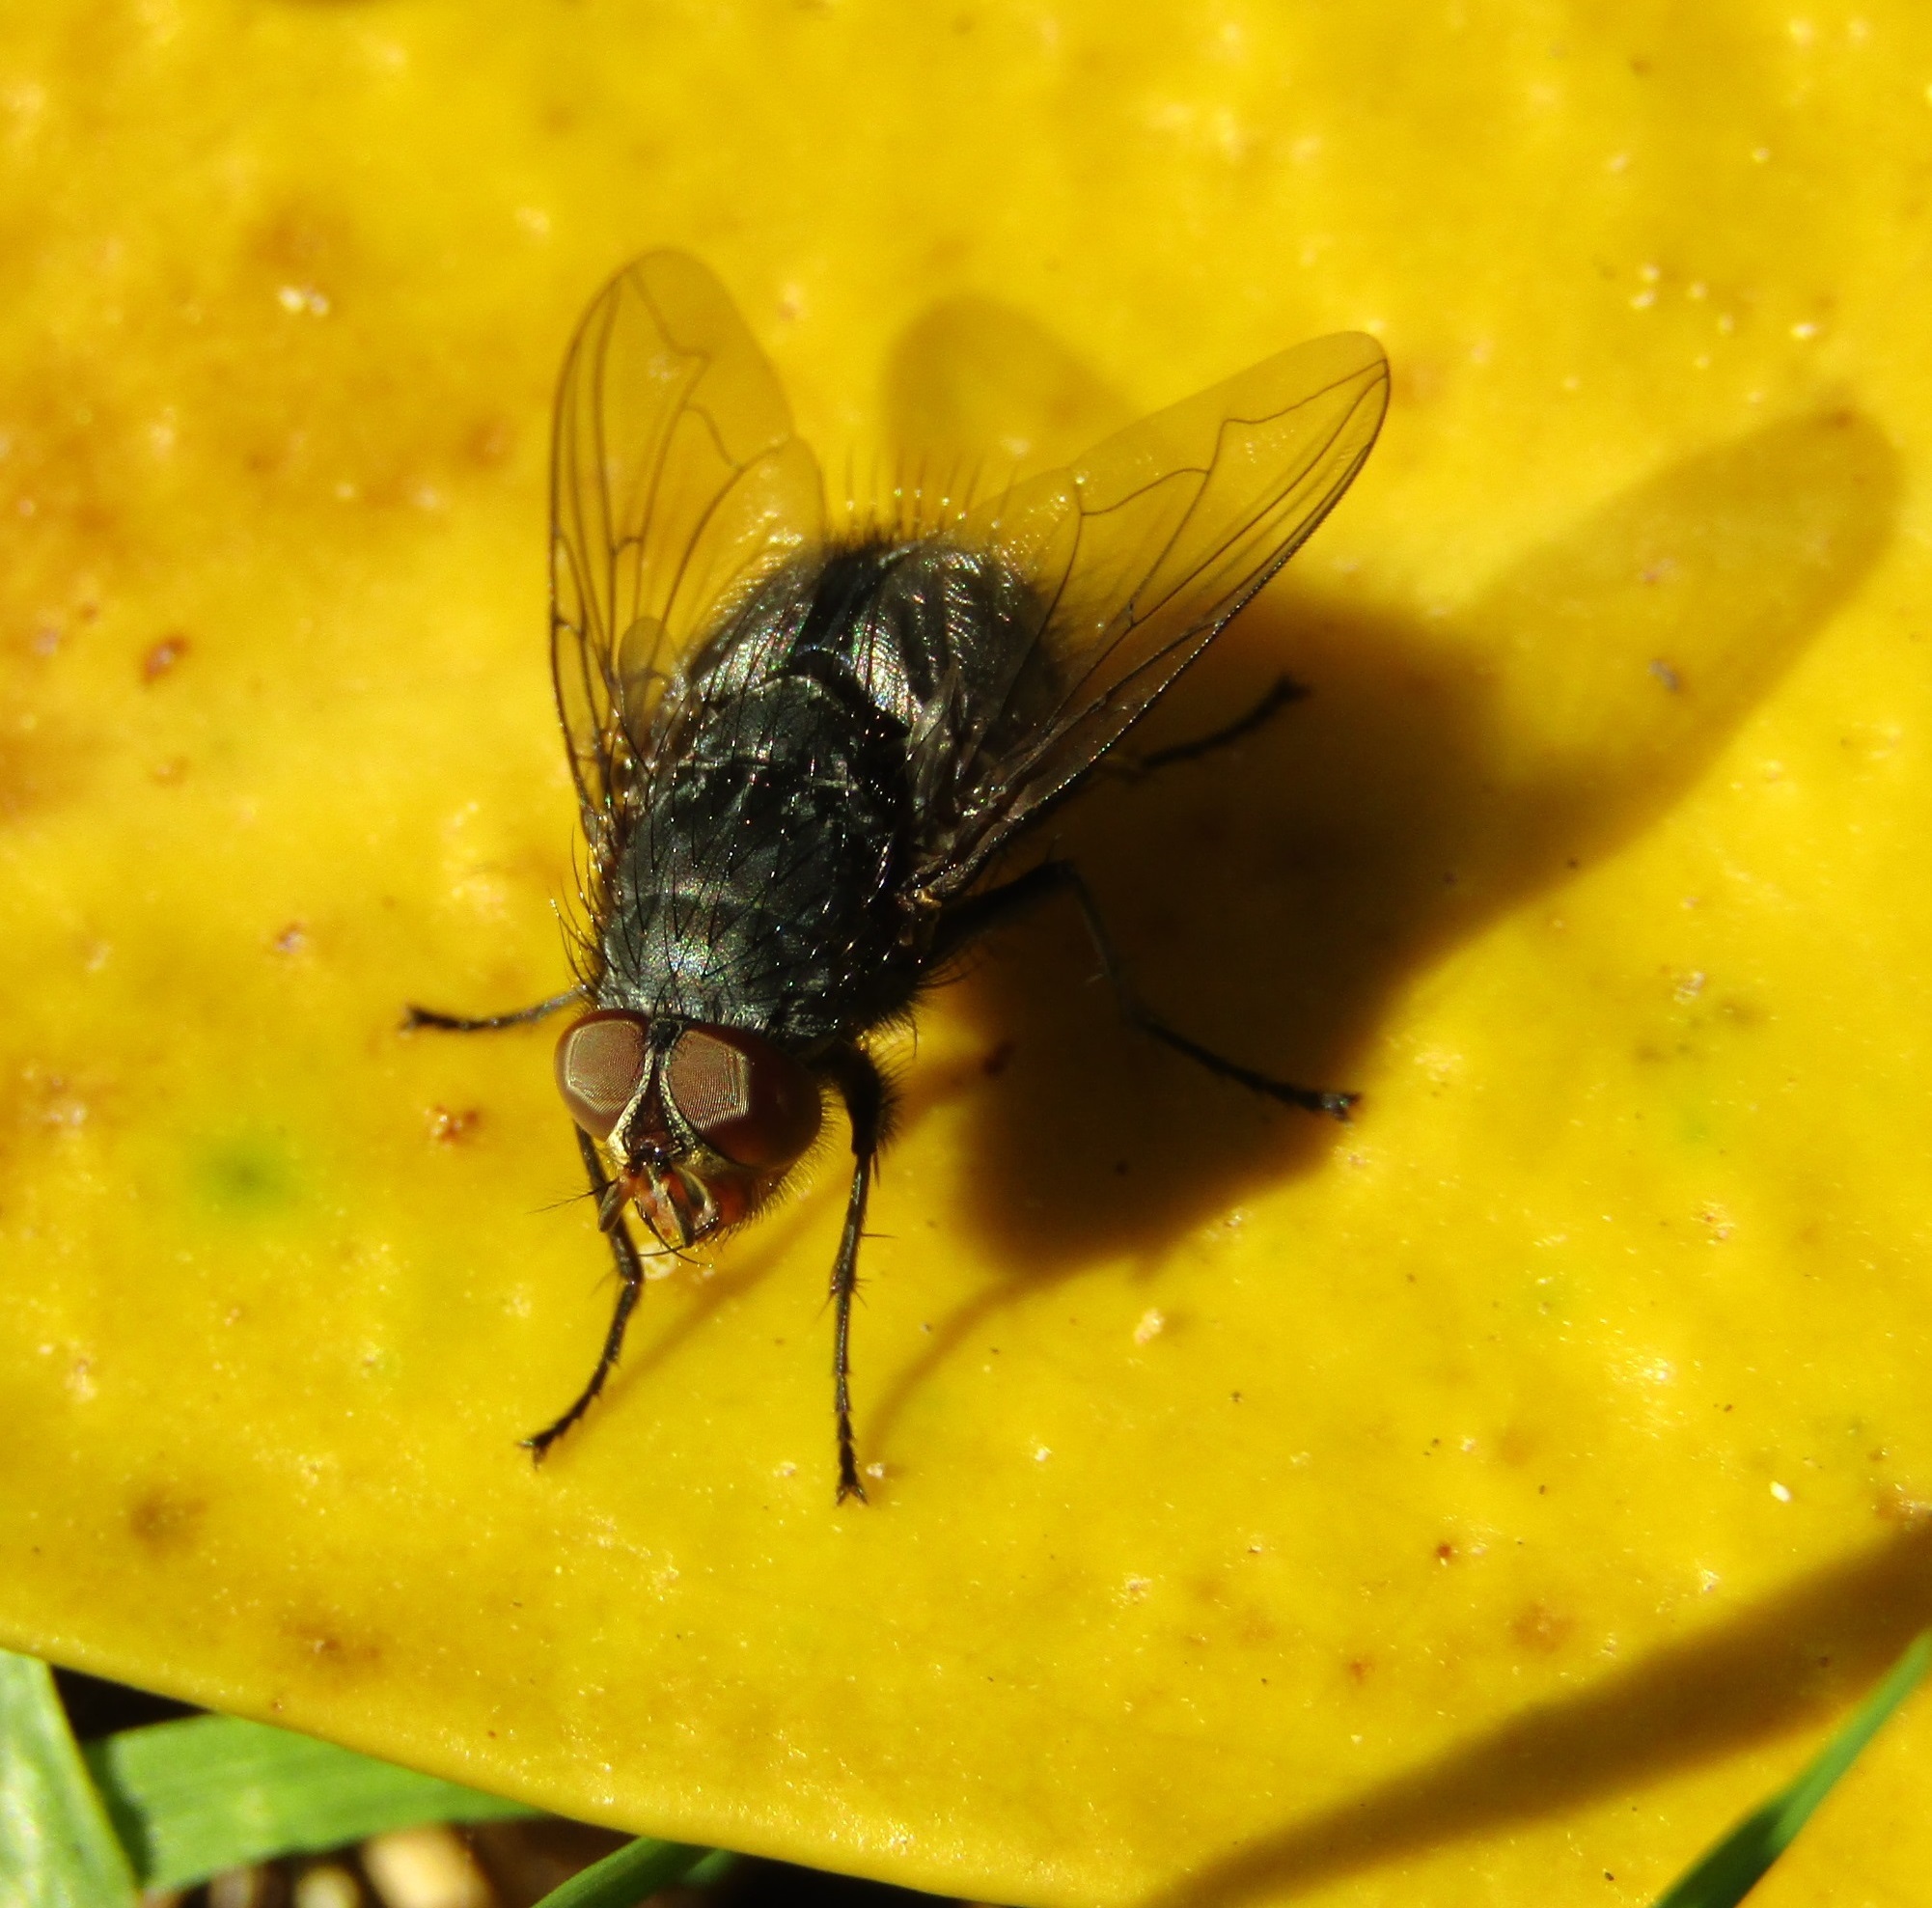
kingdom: Animalia
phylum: Arthropoda
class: Insecta
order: Diptera
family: Calliphoridae
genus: Calliphora
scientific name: Calliphora vicina
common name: Common blow flie
